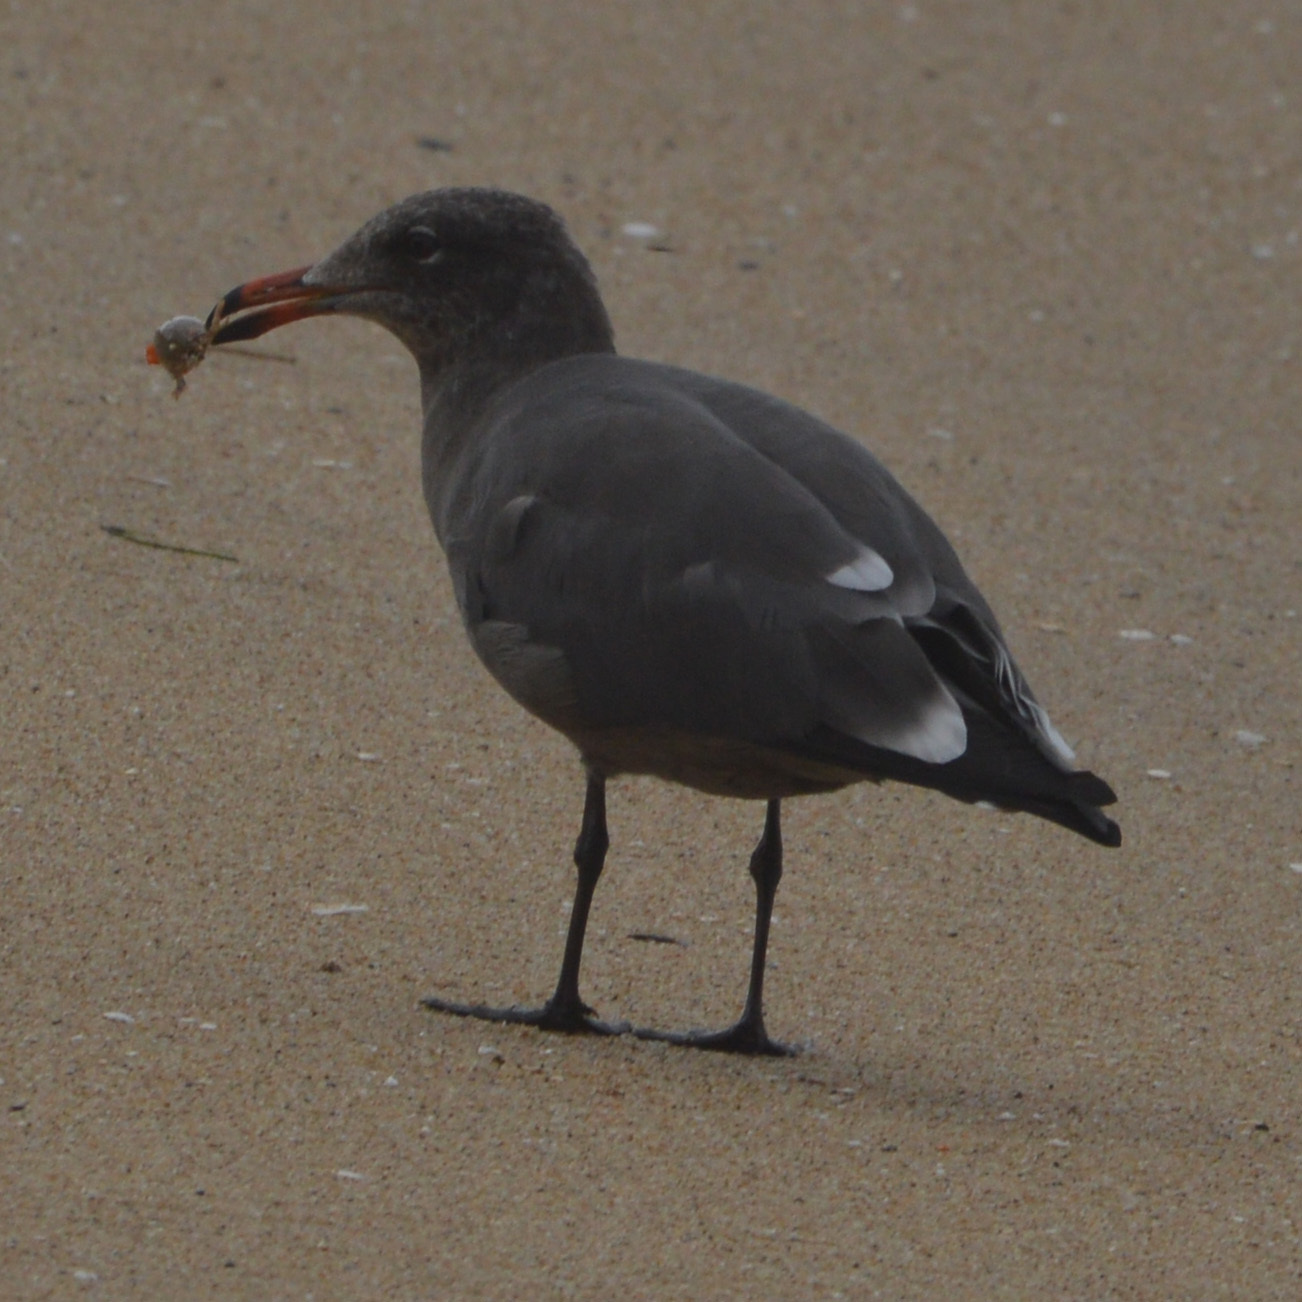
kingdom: Animalia
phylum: Chordata
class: Aves
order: Charadriiformes
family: Laridae
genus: Larus
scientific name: Larus heermanni
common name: Heermann's gull
